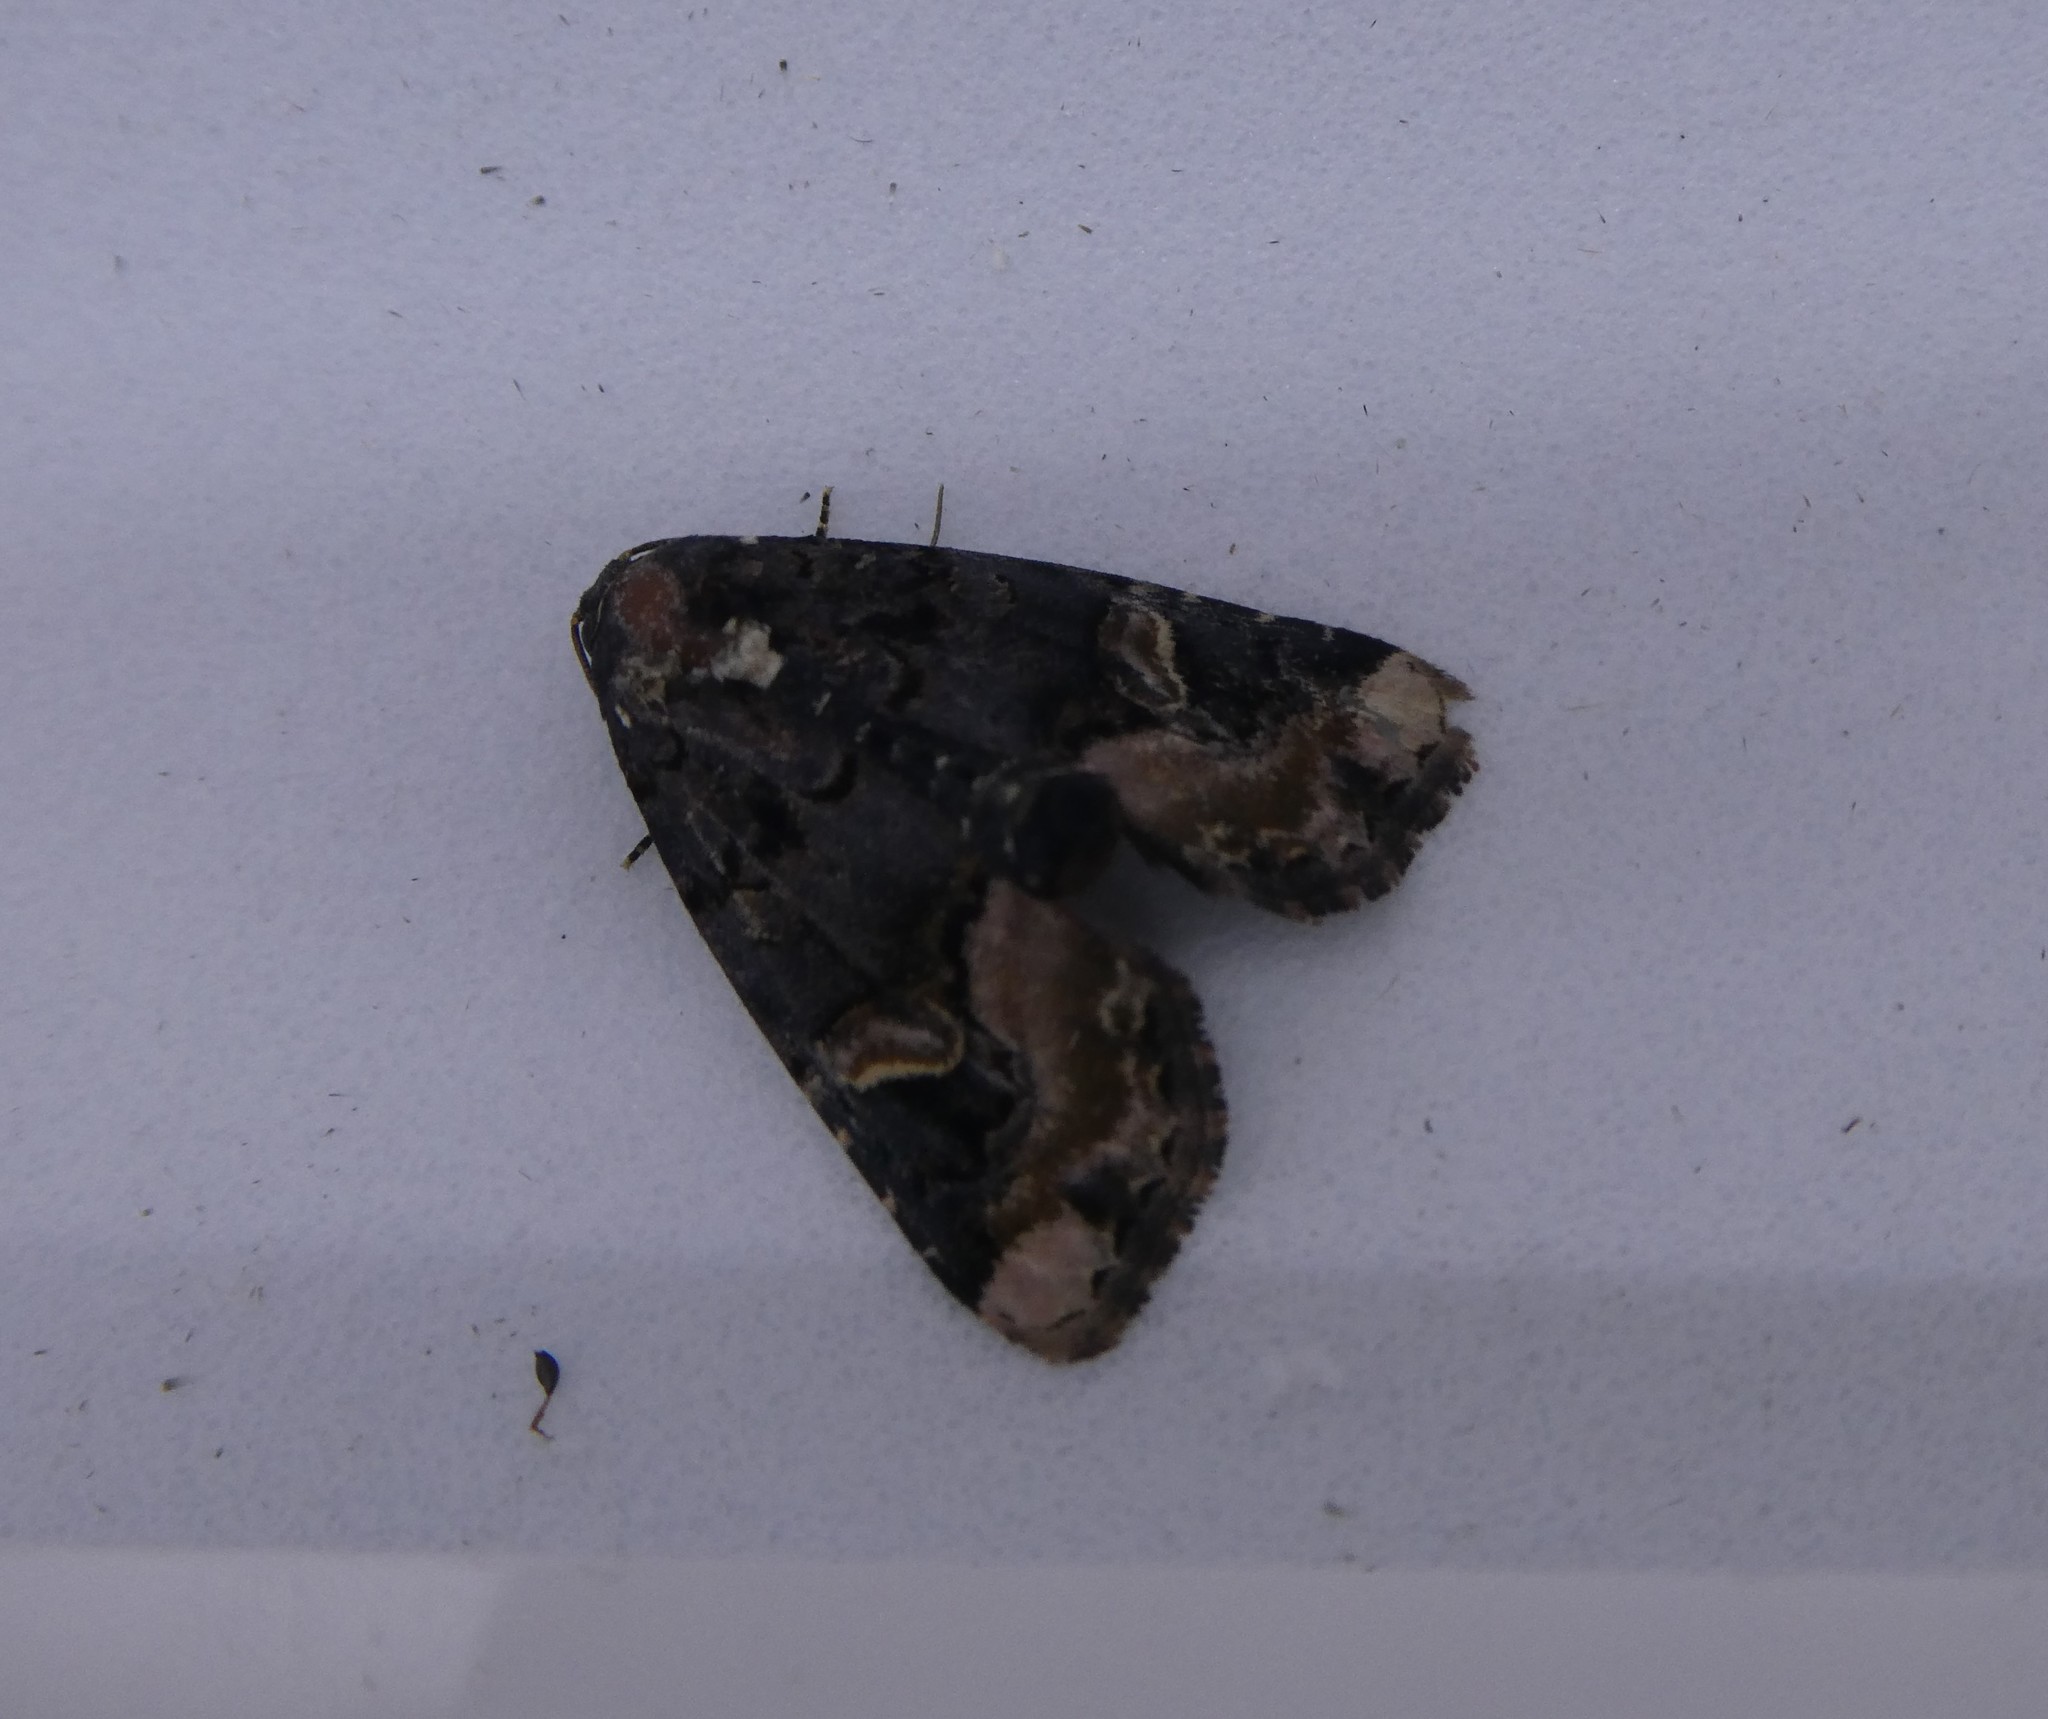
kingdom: Animalia
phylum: Arthropoda
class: Insecta
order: Lepidoptera
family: Noctuidae
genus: Homophoberia
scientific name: Homophoberia apicosa
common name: Black wedge-spot
